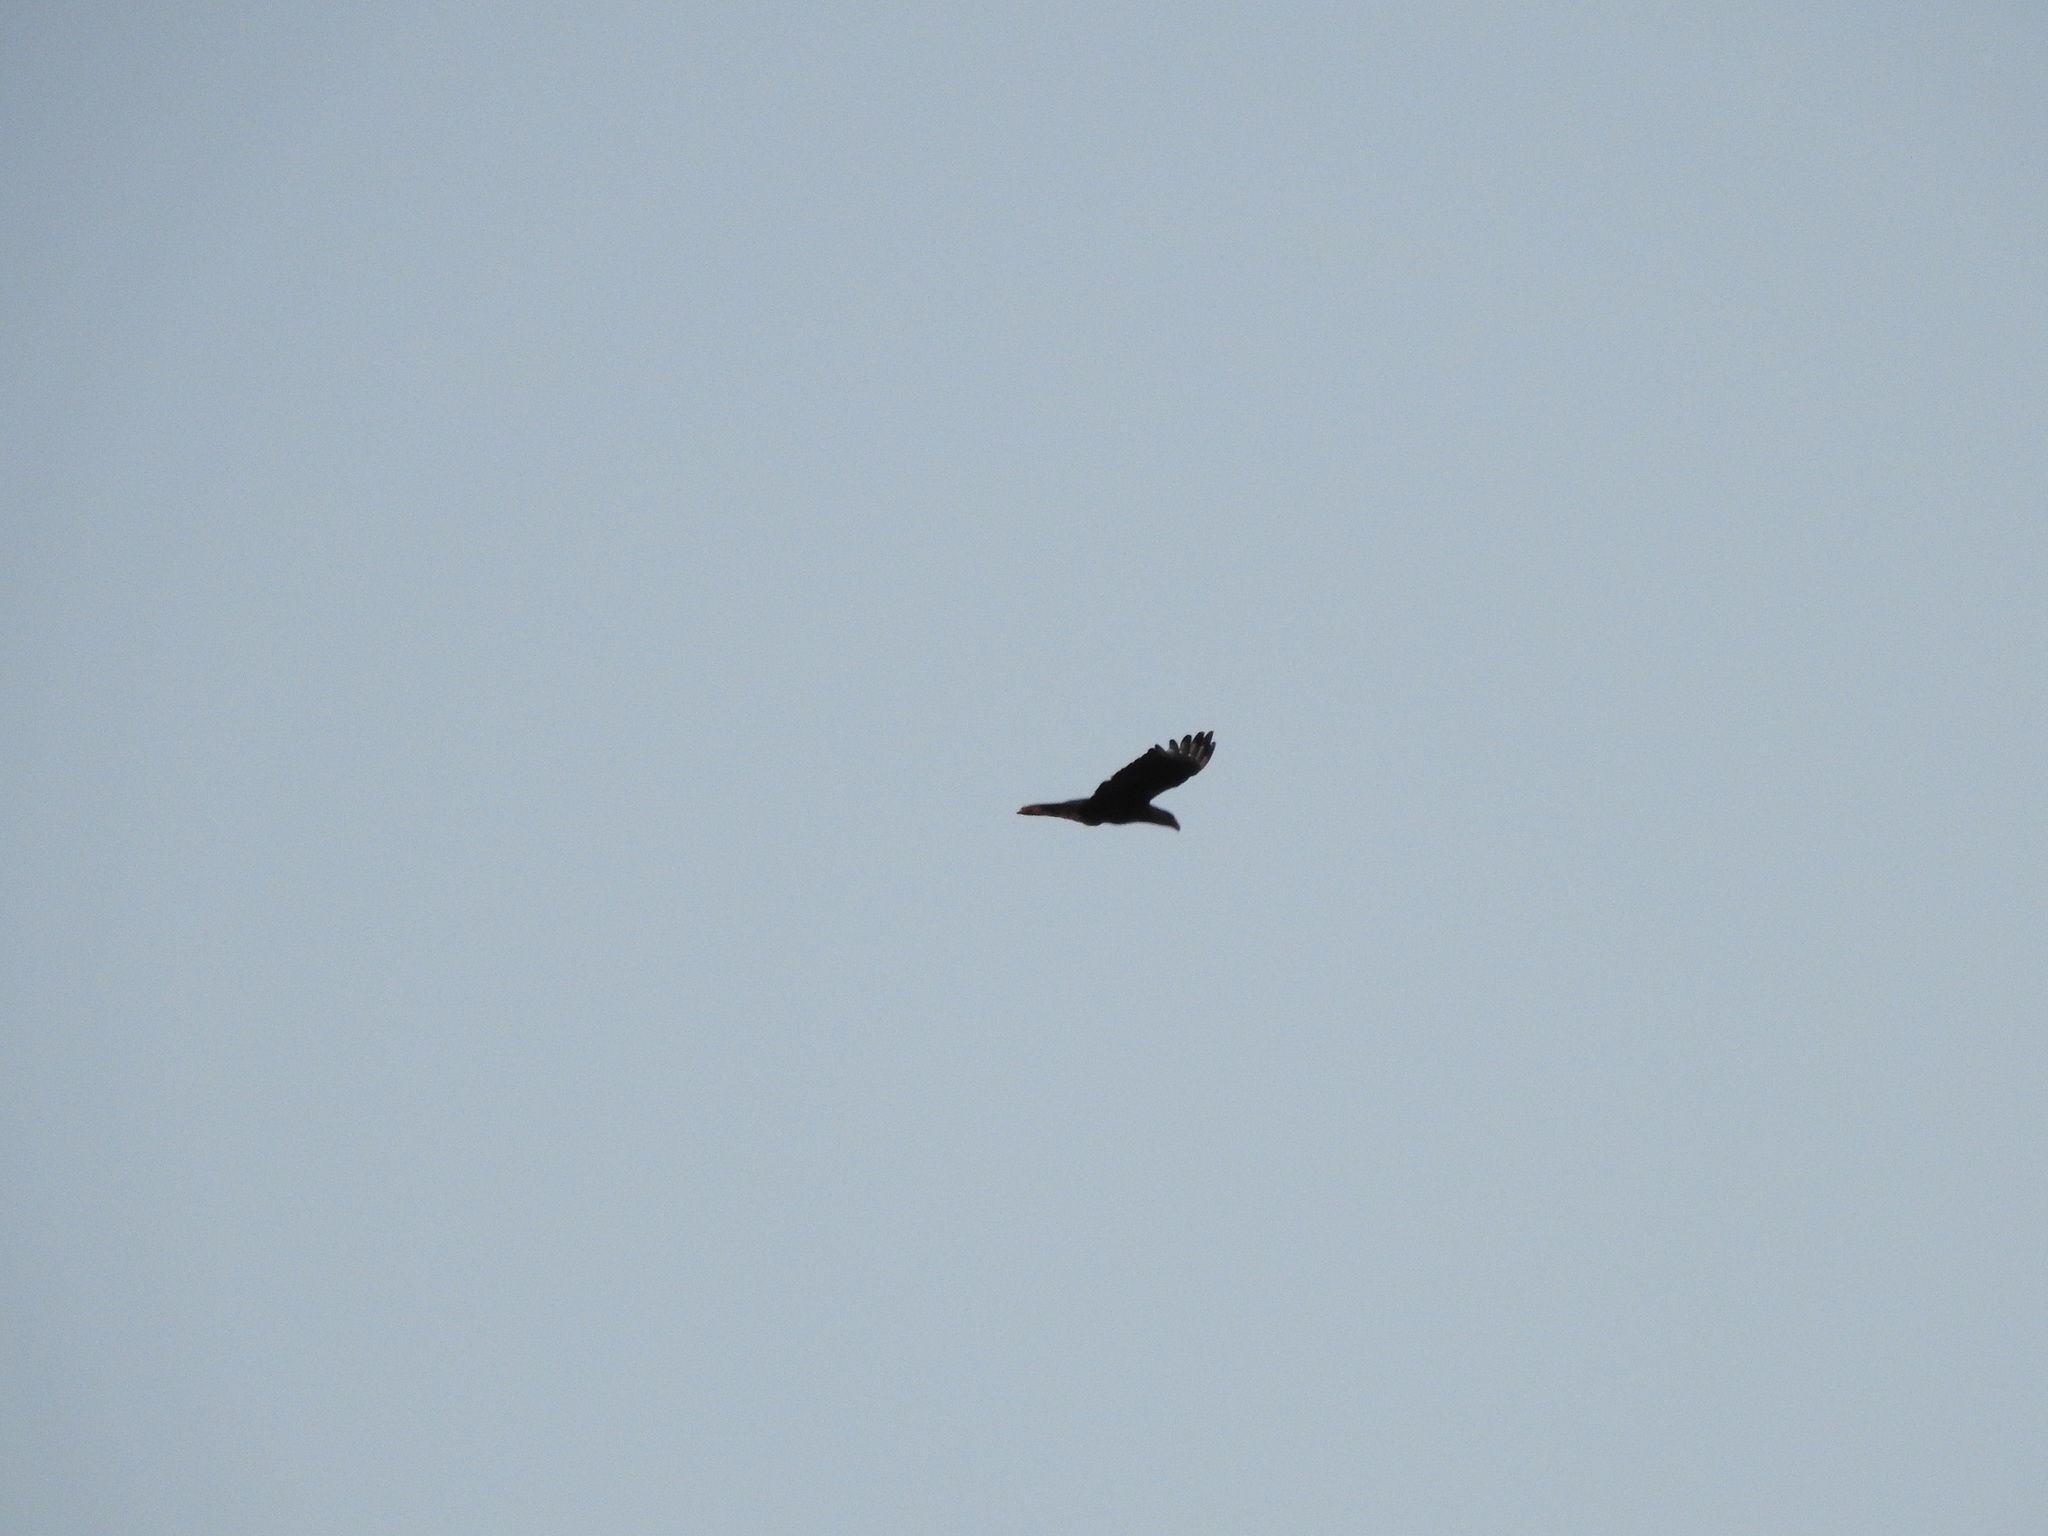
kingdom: Animalia
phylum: Chordata
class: Aves
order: Falconiformes
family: Falconidae
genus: Caracara
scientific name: Caracara plancus
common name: Southern caracara
